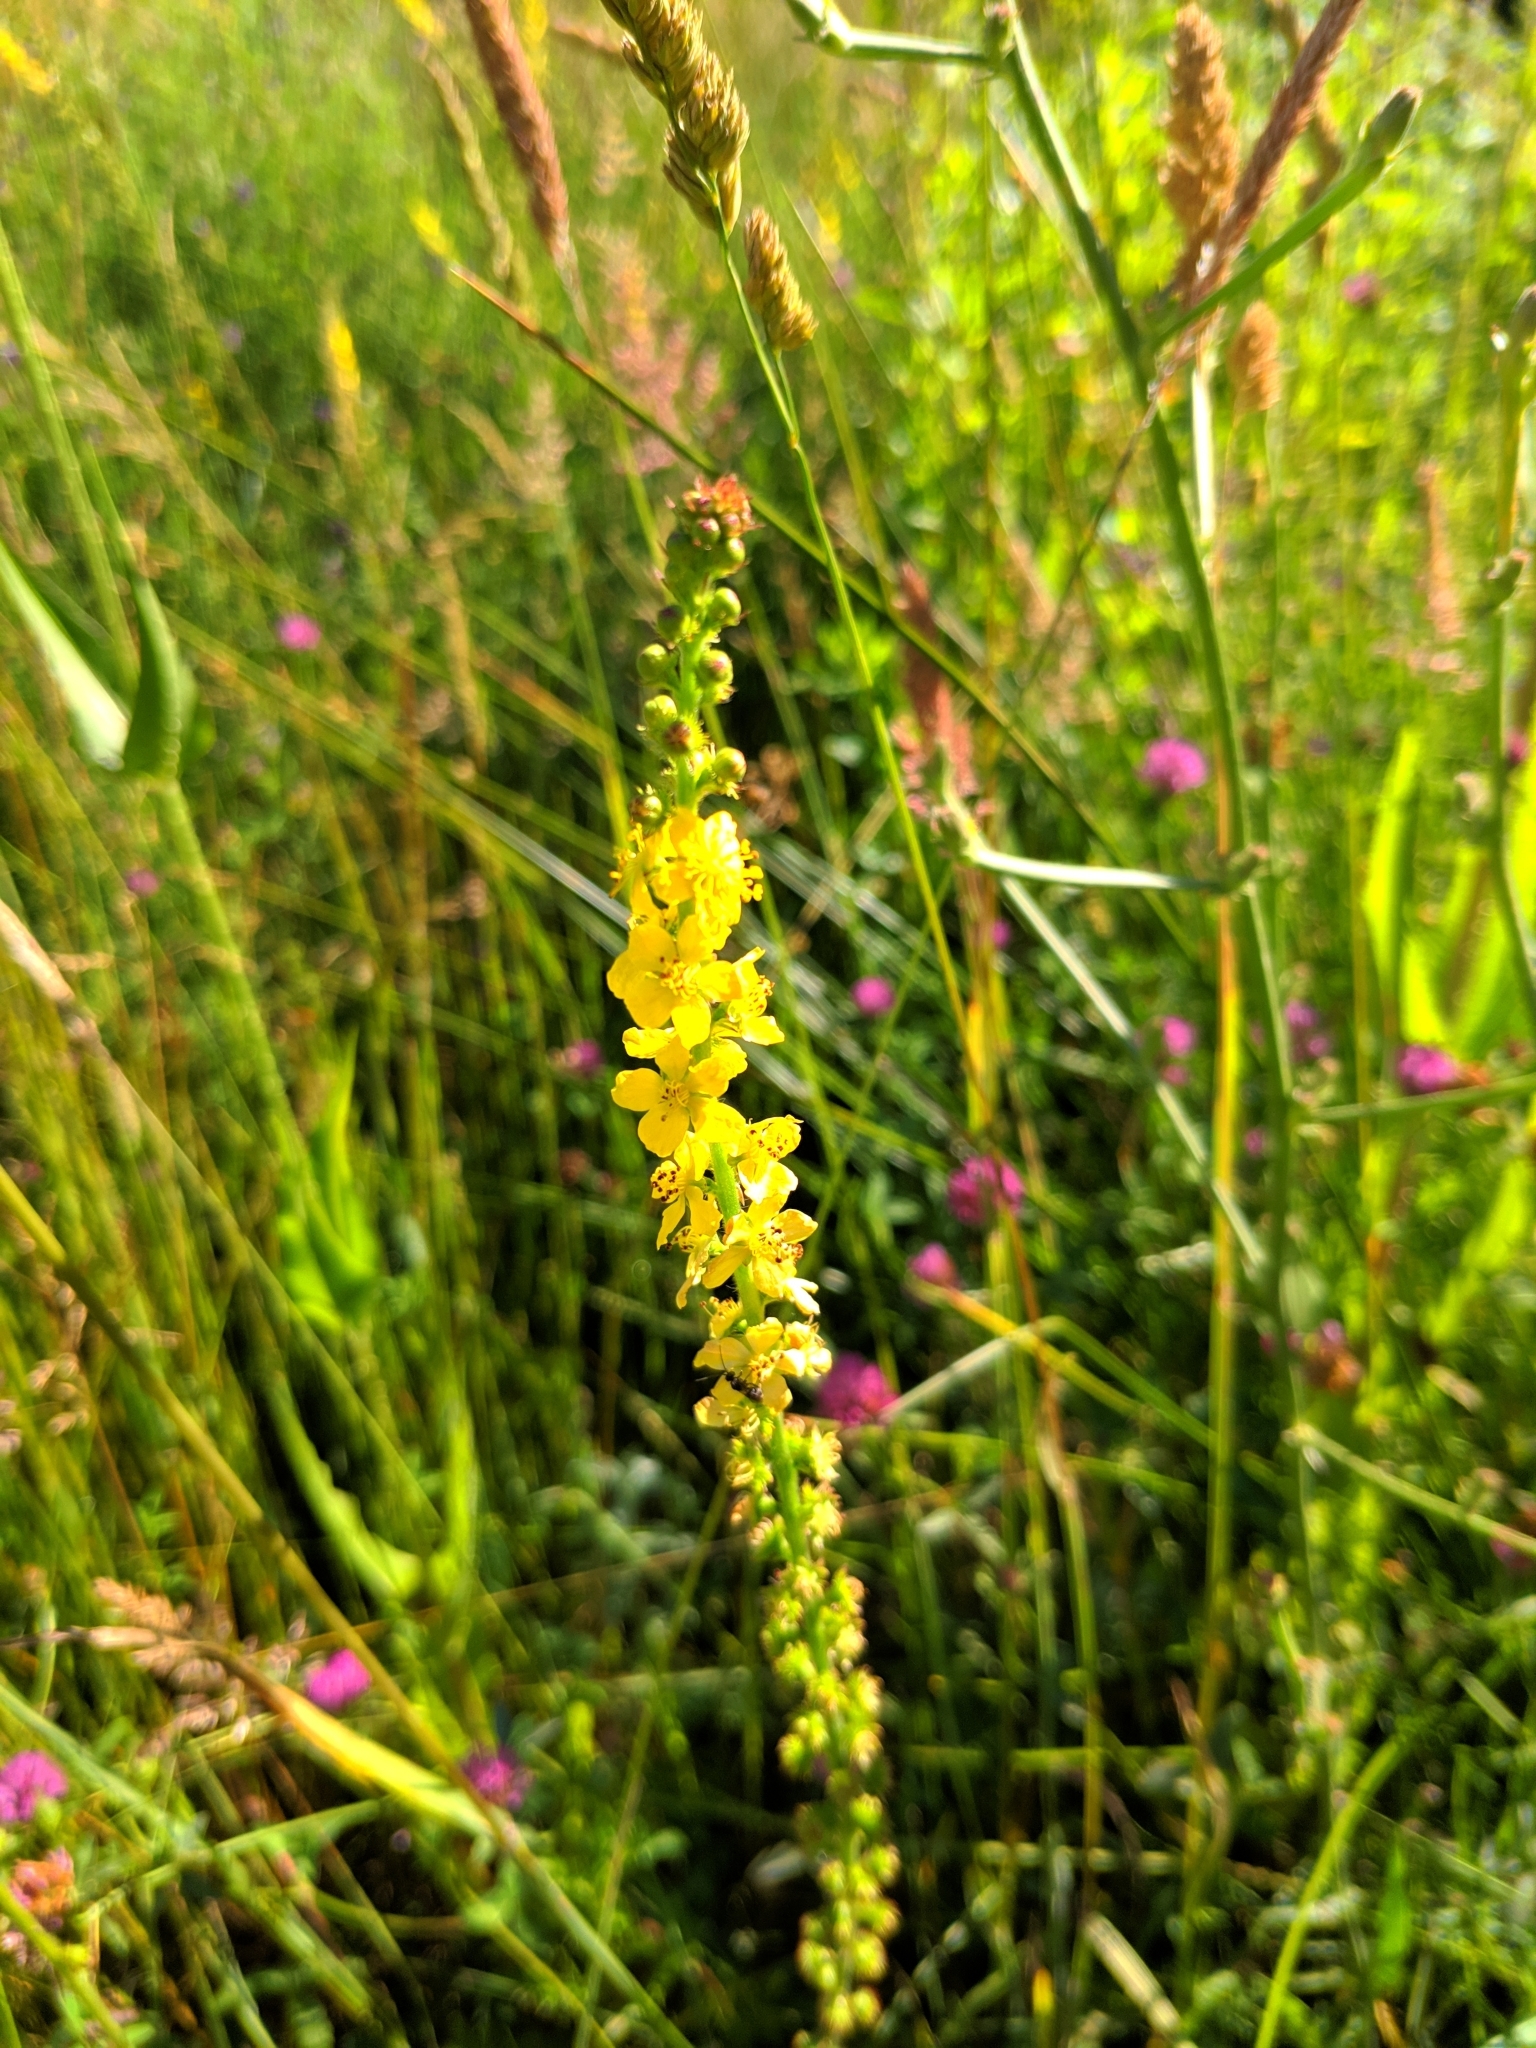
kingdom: Plantae
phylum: Tracheophyta
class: Magnoliopsida
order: Rosales
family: Rosaceae
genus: Agrimonia
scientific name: Agrimonia eupatoria
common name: Agrimony
